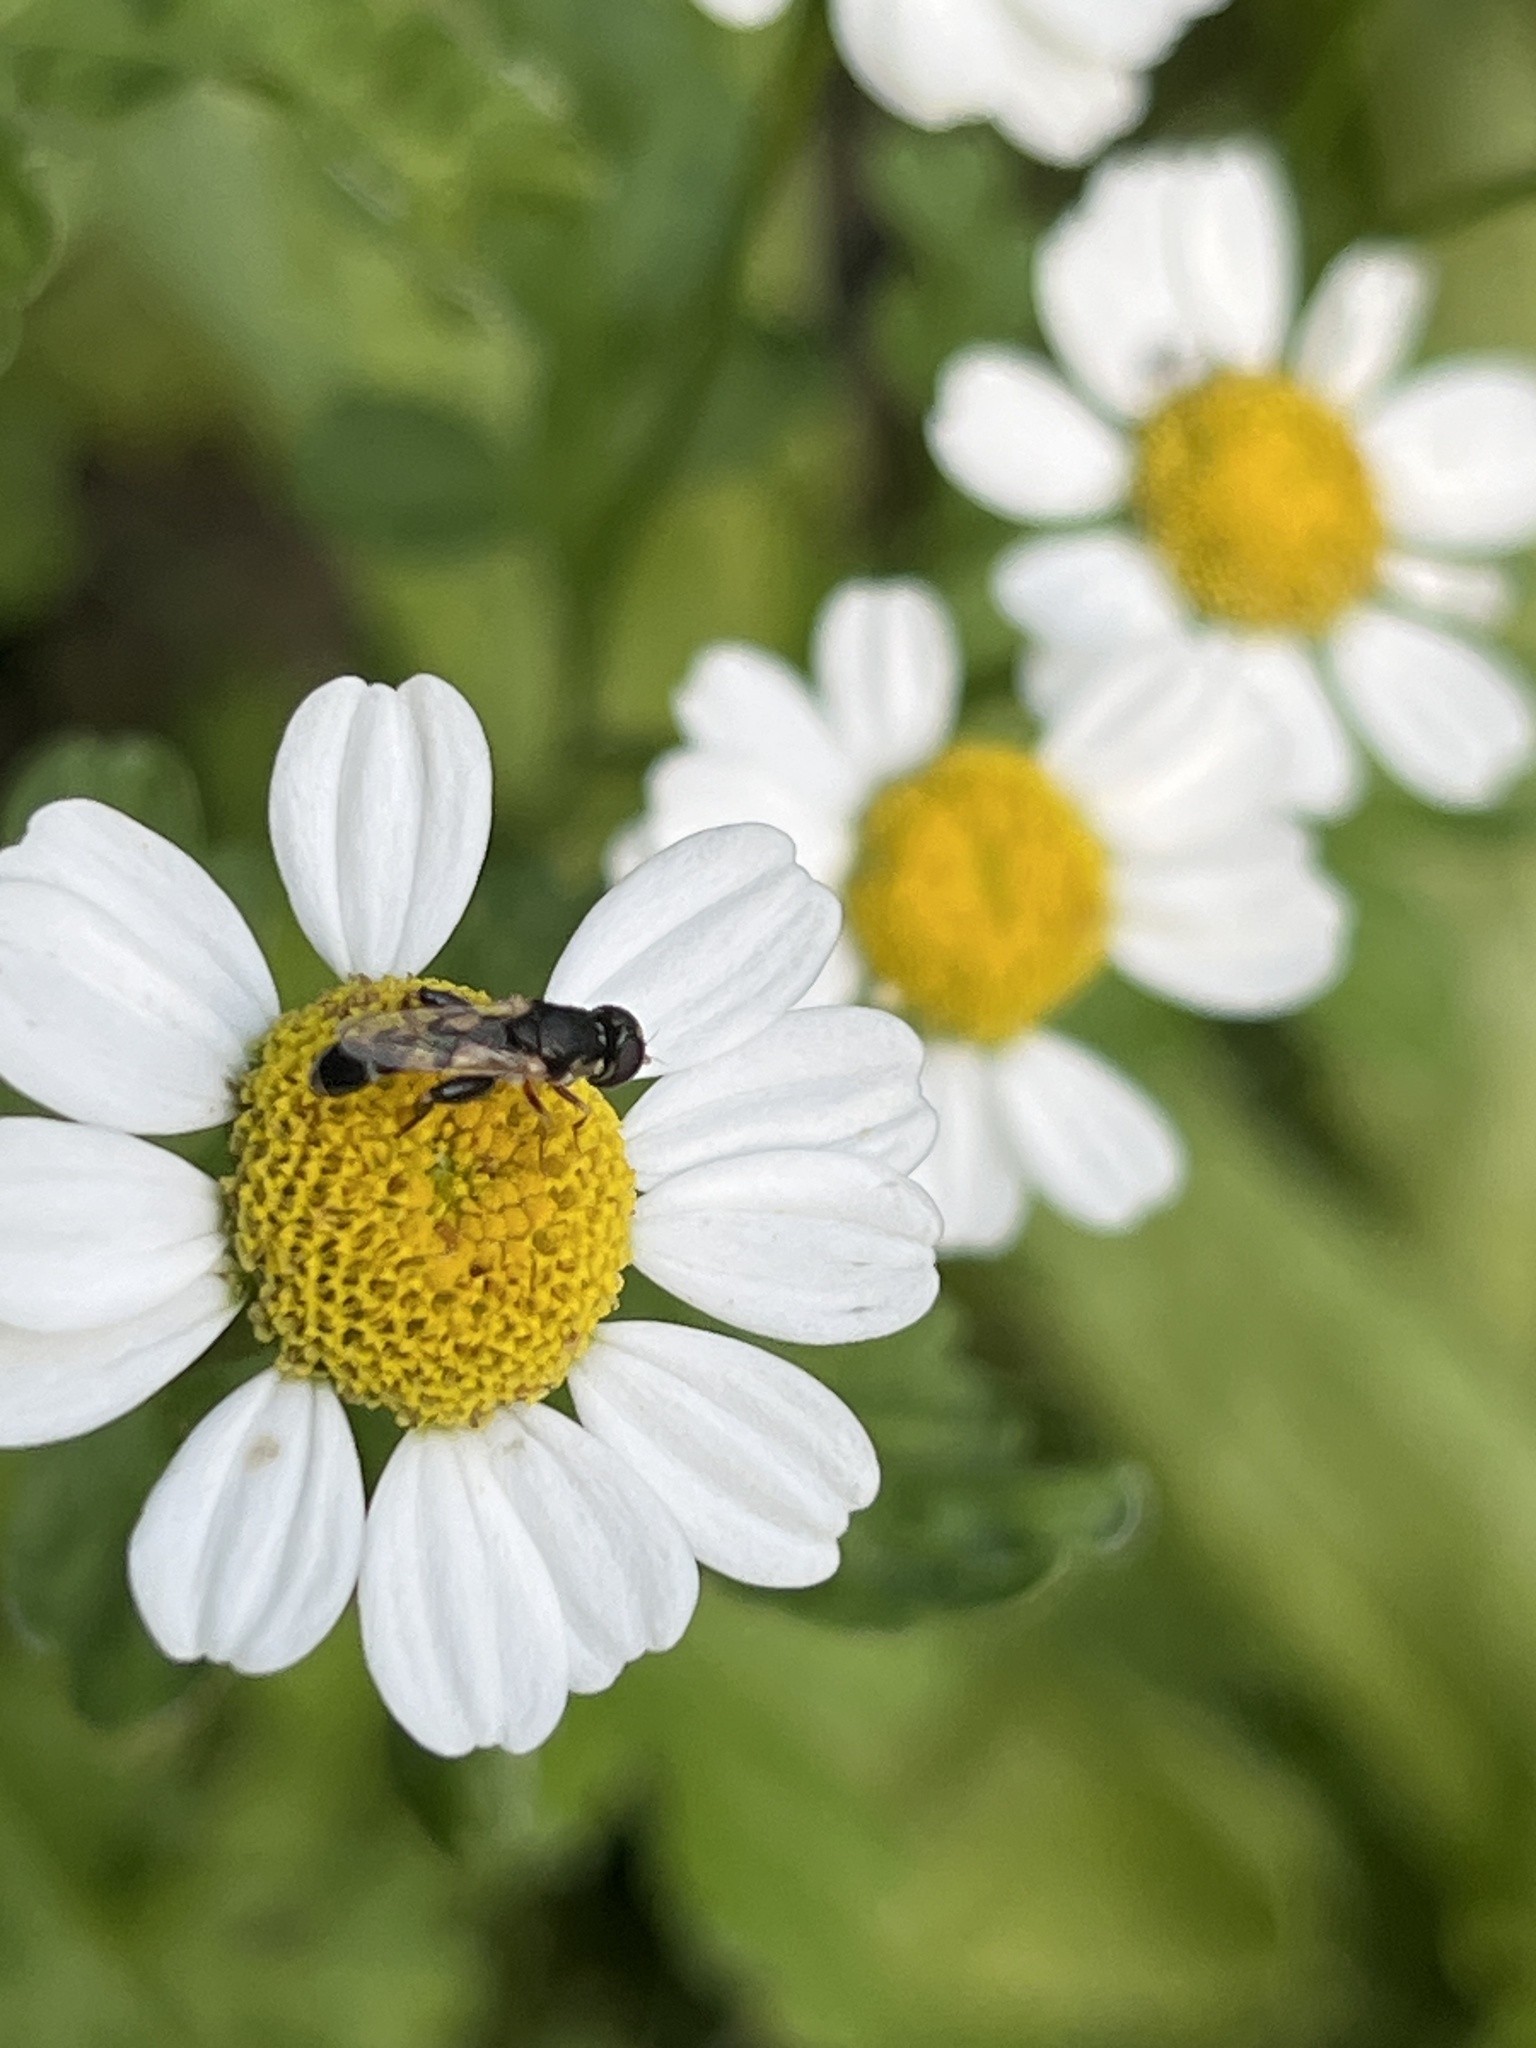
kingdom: Animalia
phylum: Arthropoda
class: Insecta
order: Diptera
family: Syrphidae
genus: Syritta
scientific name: Syritta pipiens
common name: Hover fly
